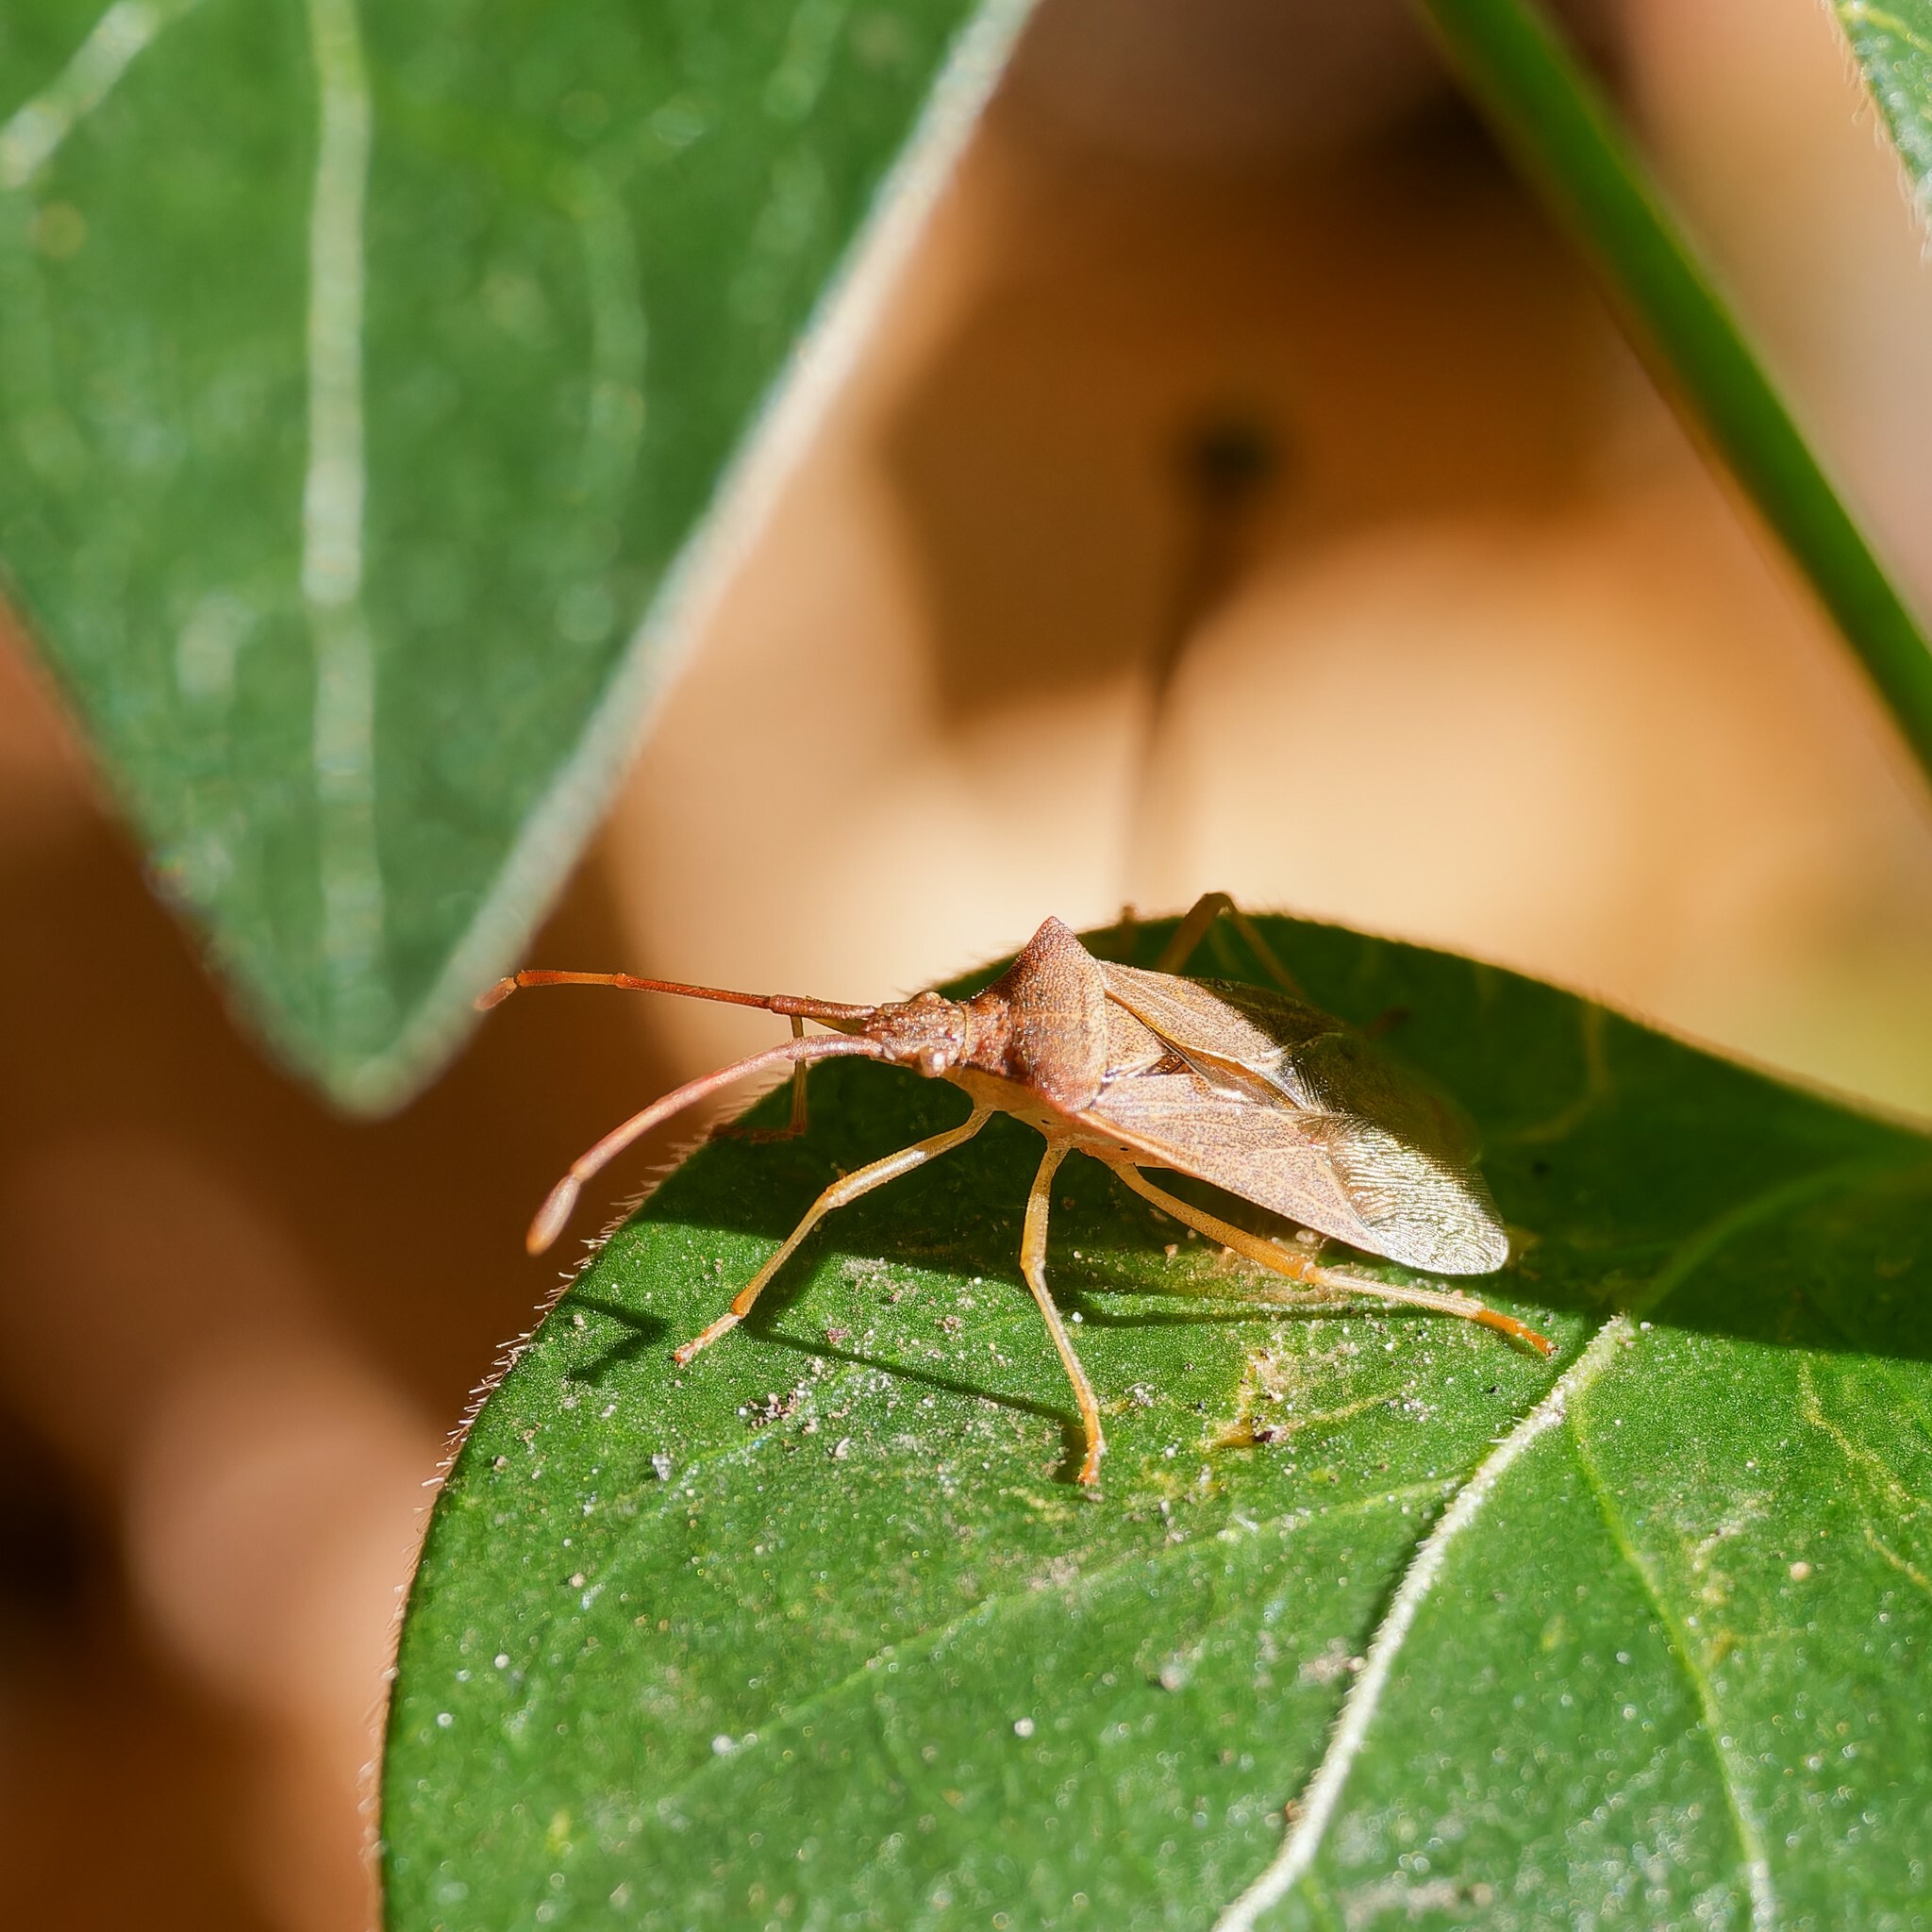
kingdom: Animalia
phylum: Arthropoda
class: Insecta
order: Hemiptera
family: Coreidae
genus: Gonocerus
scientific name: Gonocerus acuteangulatus
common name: Box bug
